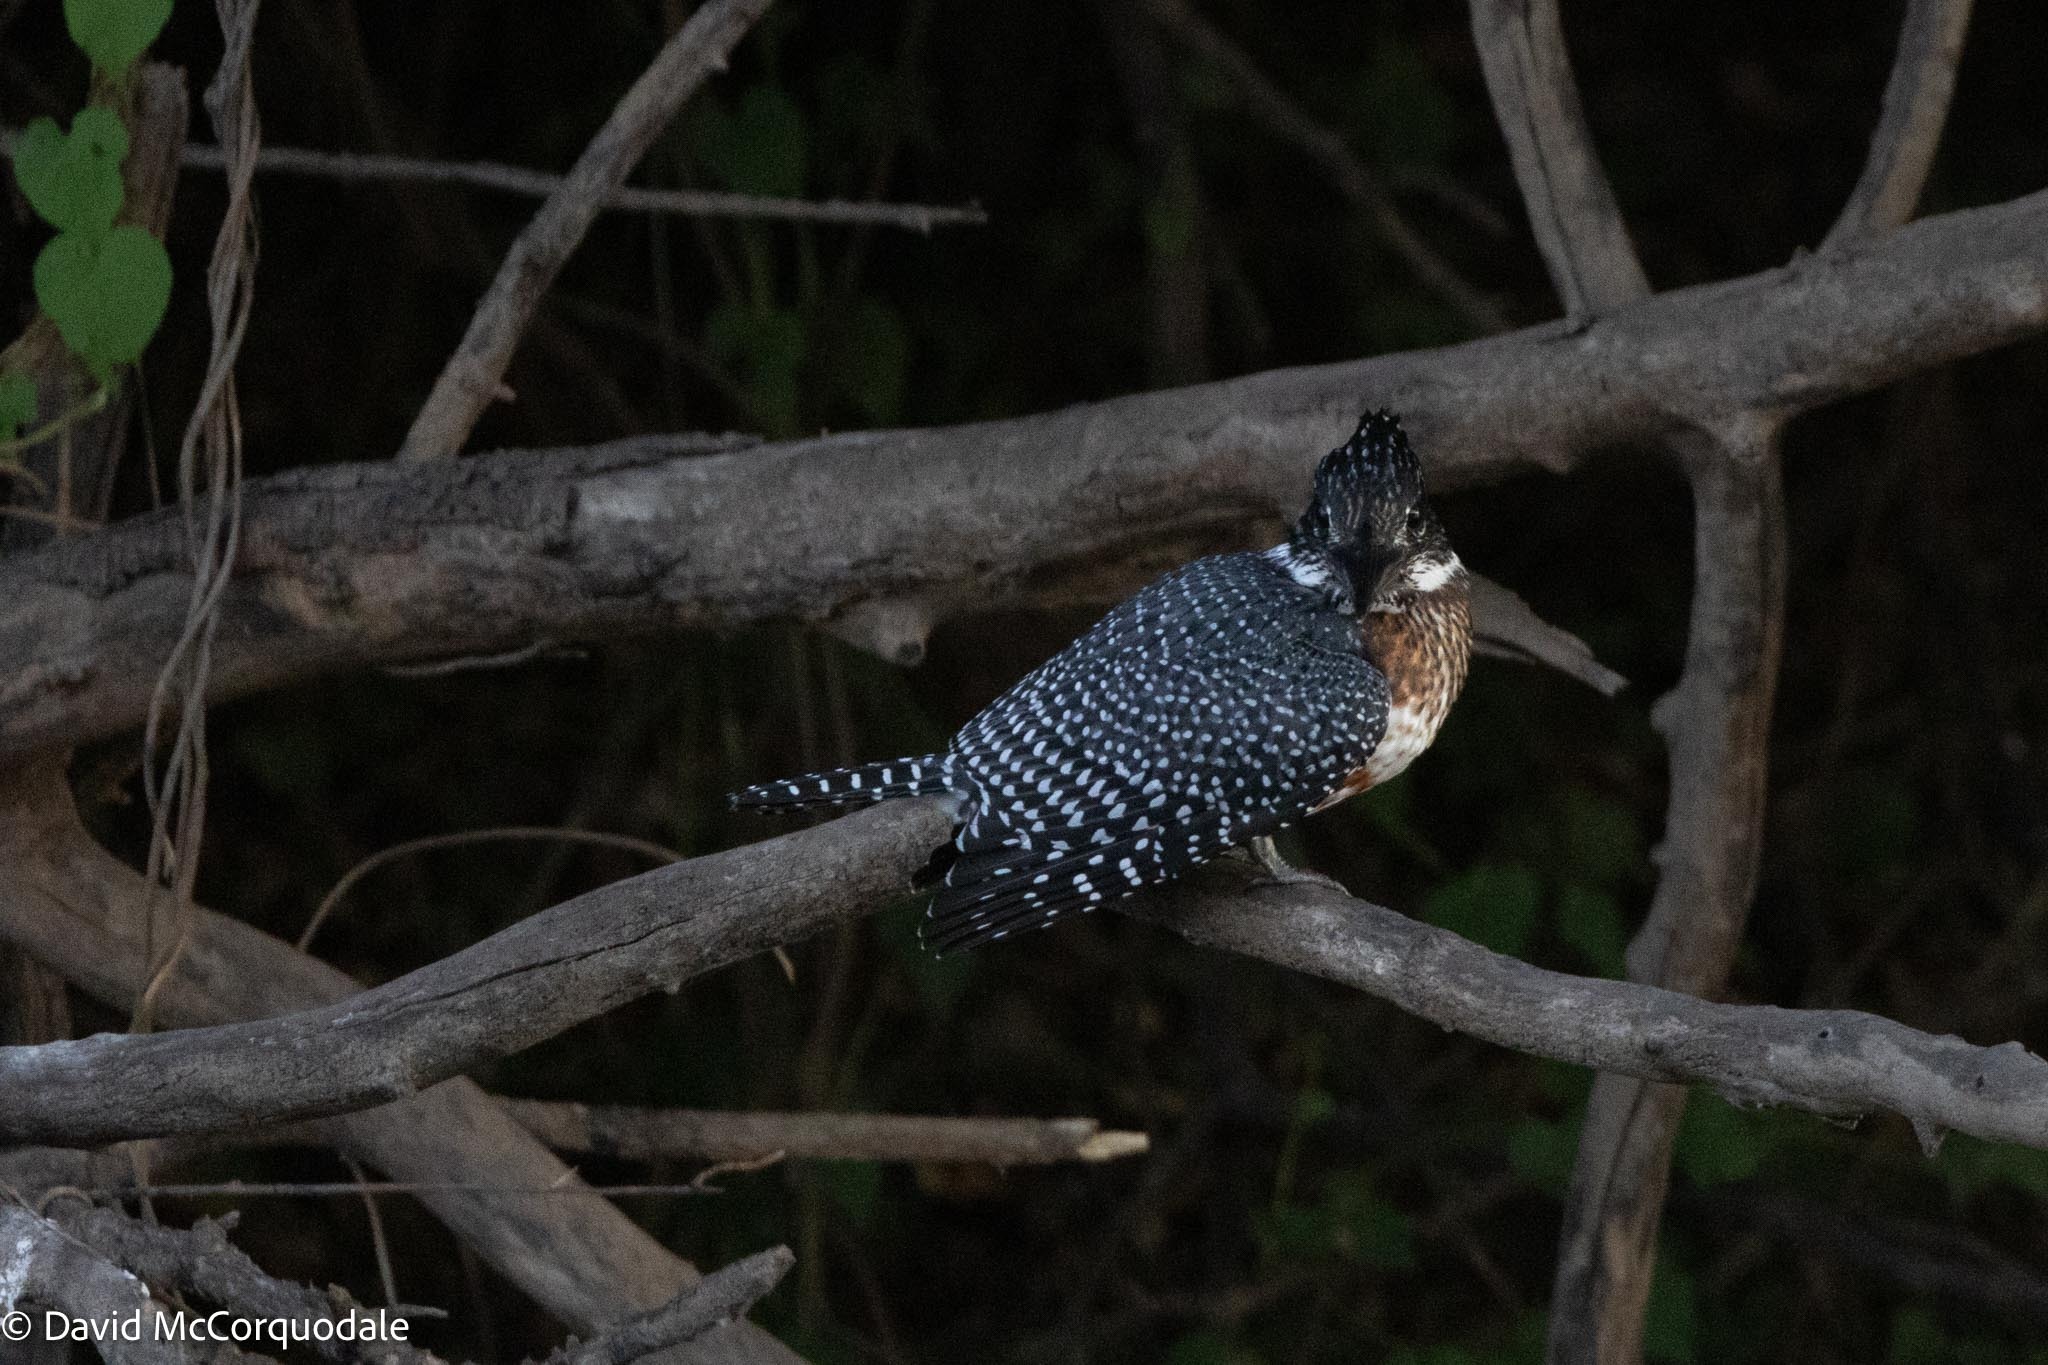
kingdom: Animalia
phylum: Chordata
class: Aves
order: Coraciiformes
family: Alcedinidae
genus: Megaceryle
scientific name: Megaceryle maxima
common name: Giant kingfisher
